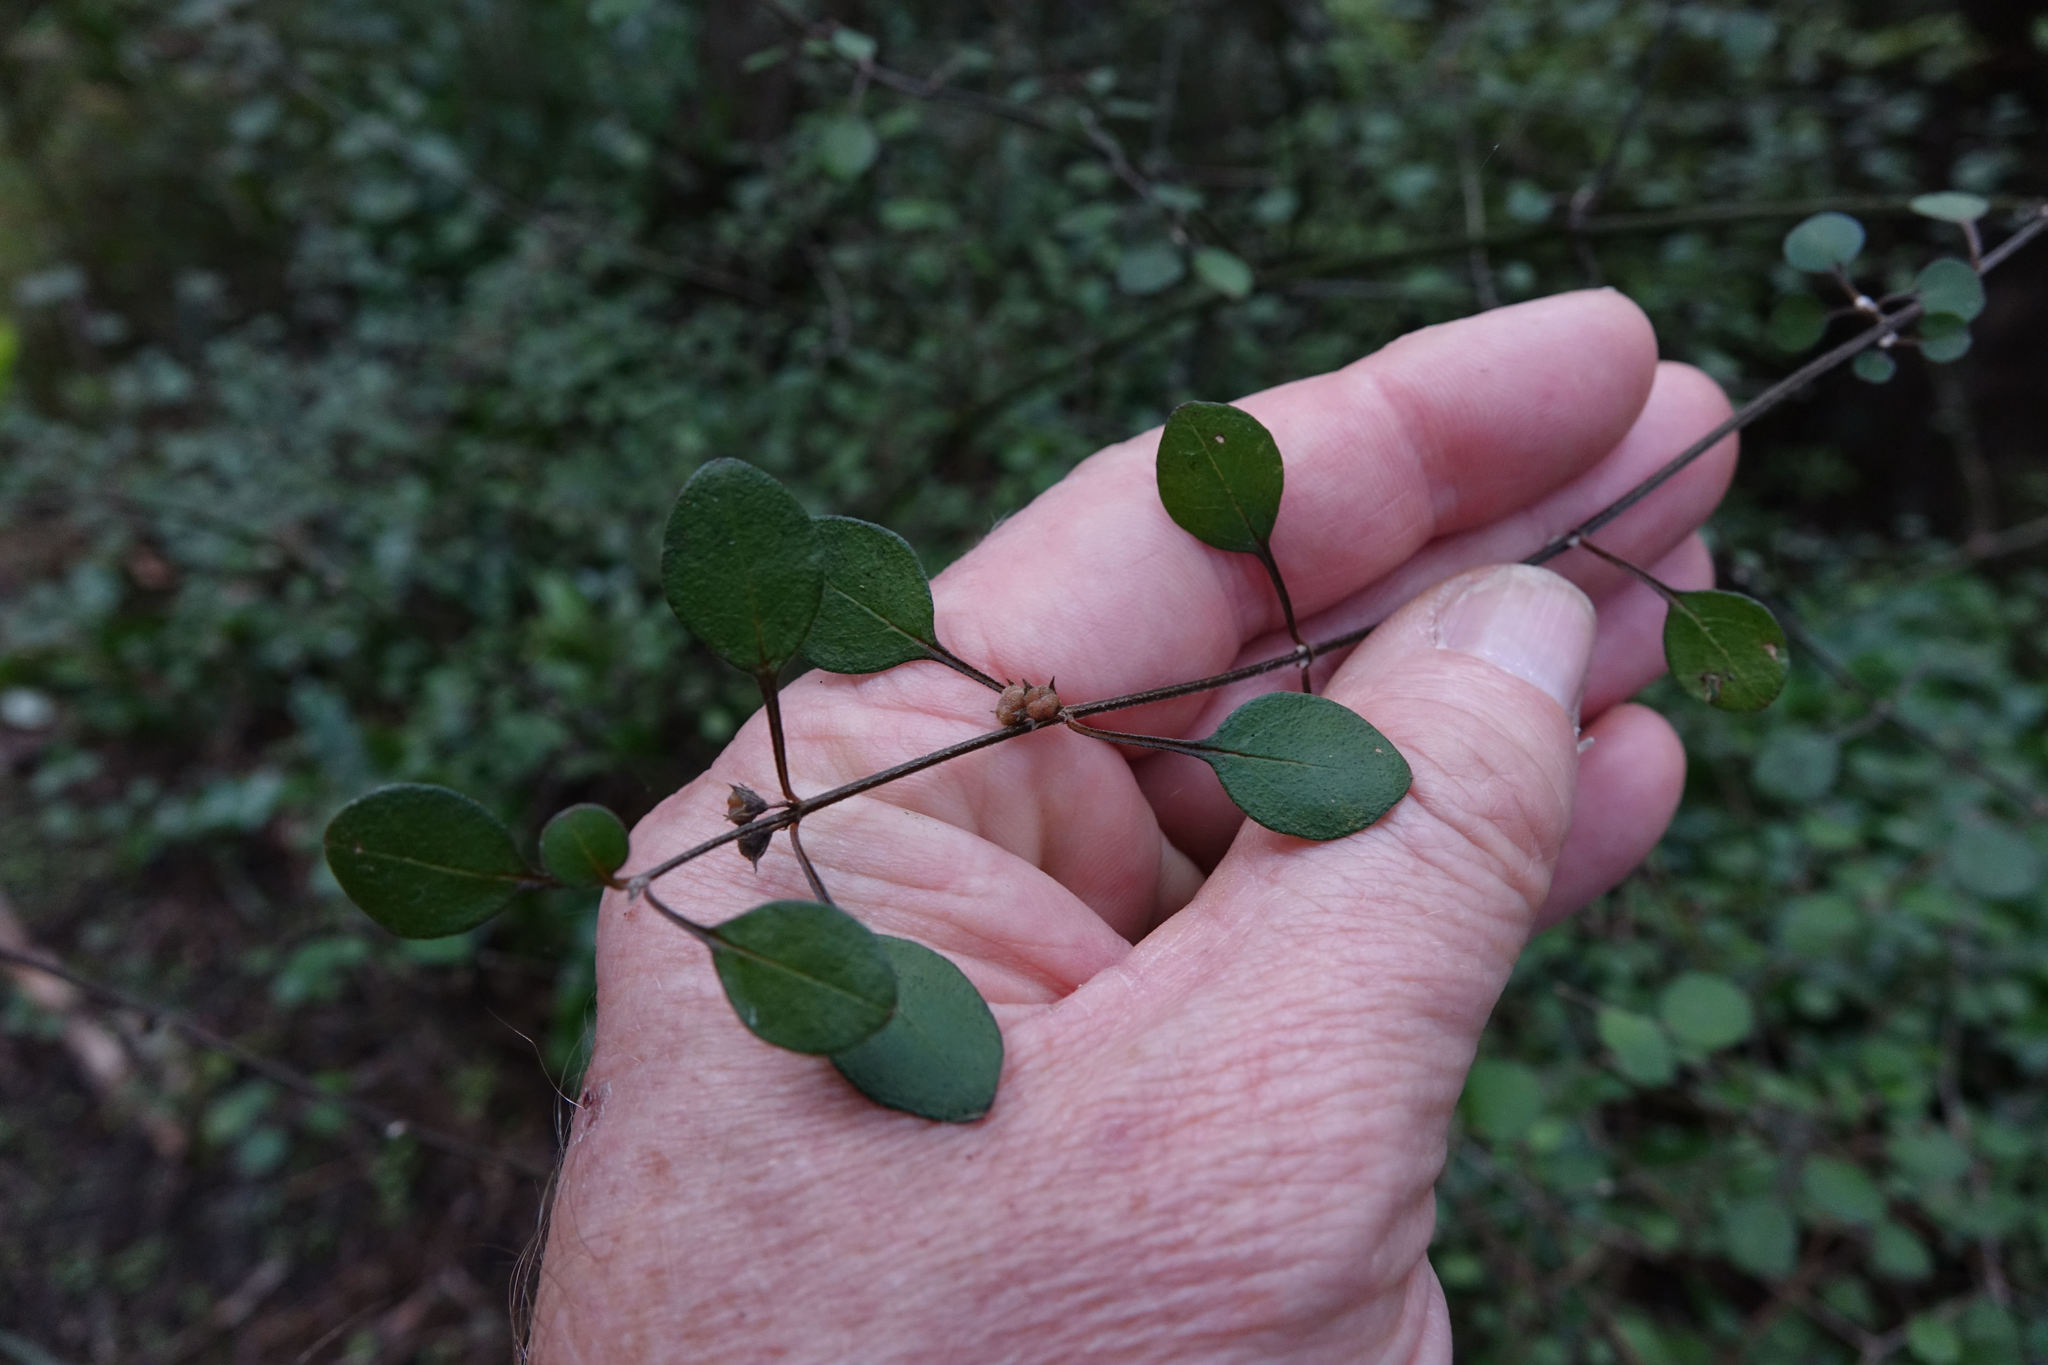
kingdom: Plantae
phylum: Tracheophyta
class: Magnoliopsida
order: Lamiales
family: Lamiaceae
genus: Teucrium
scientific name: Teucrium parvifolium
